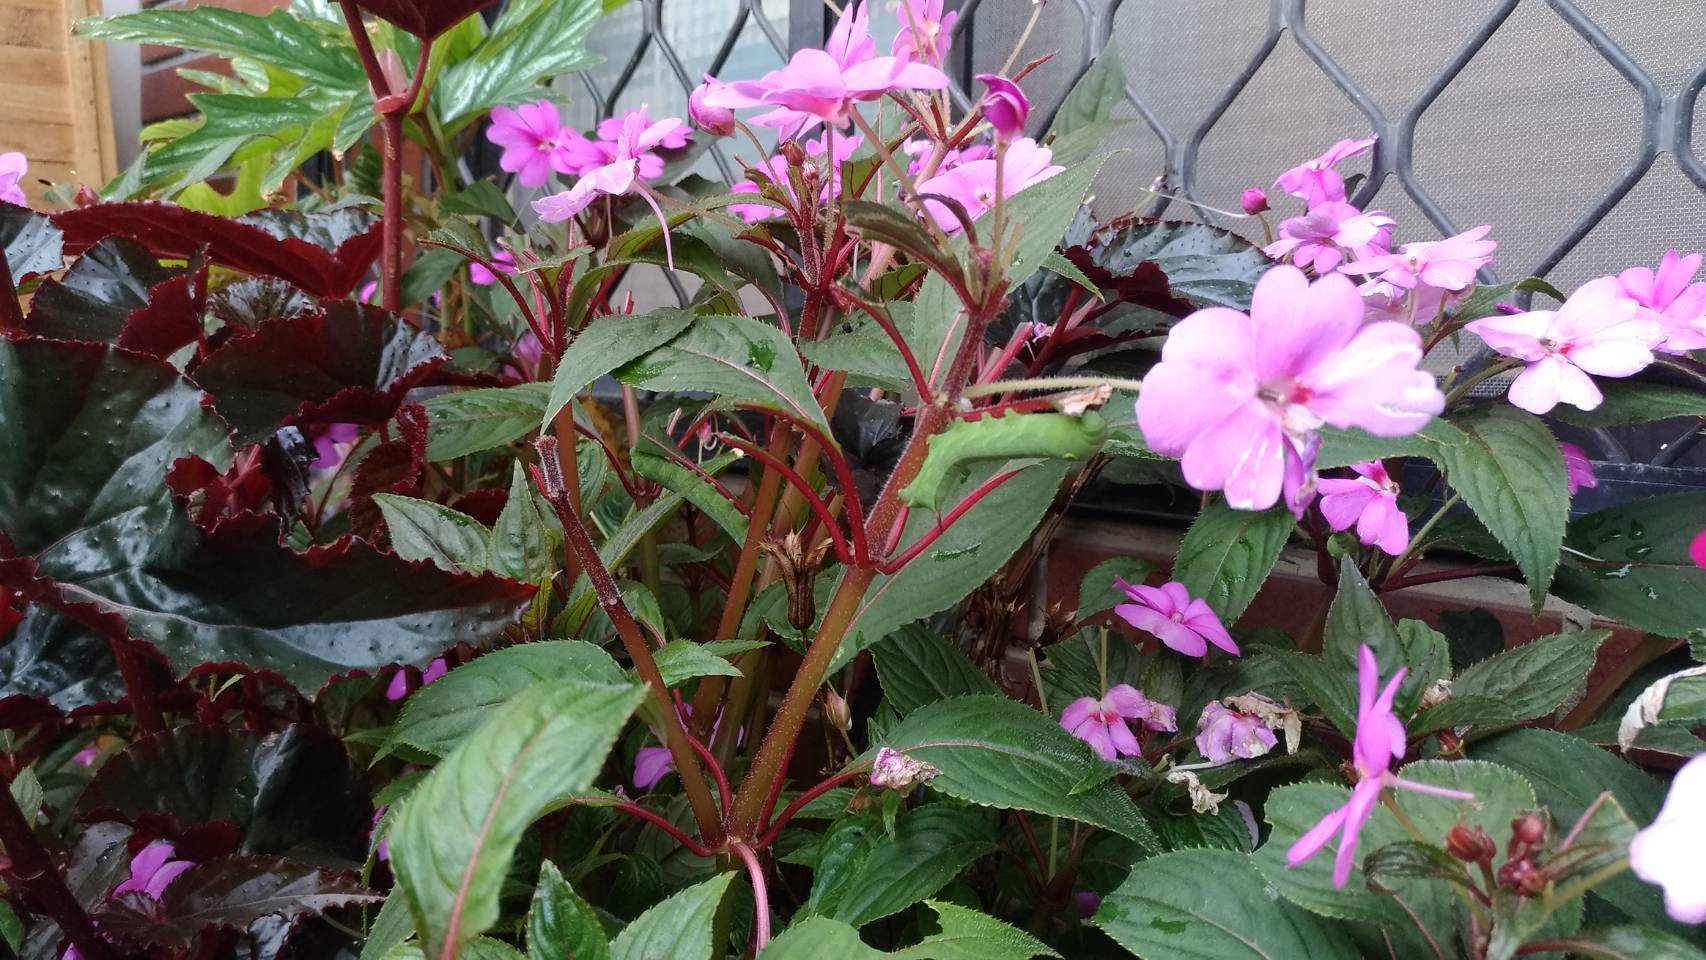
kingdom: Animalia
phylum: Arthropoda
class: Insecta
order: Lepidoptera
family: Sphingidae
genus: Hippotion
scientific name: Hippotion celerio
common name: Silver-striped hawk-moth
